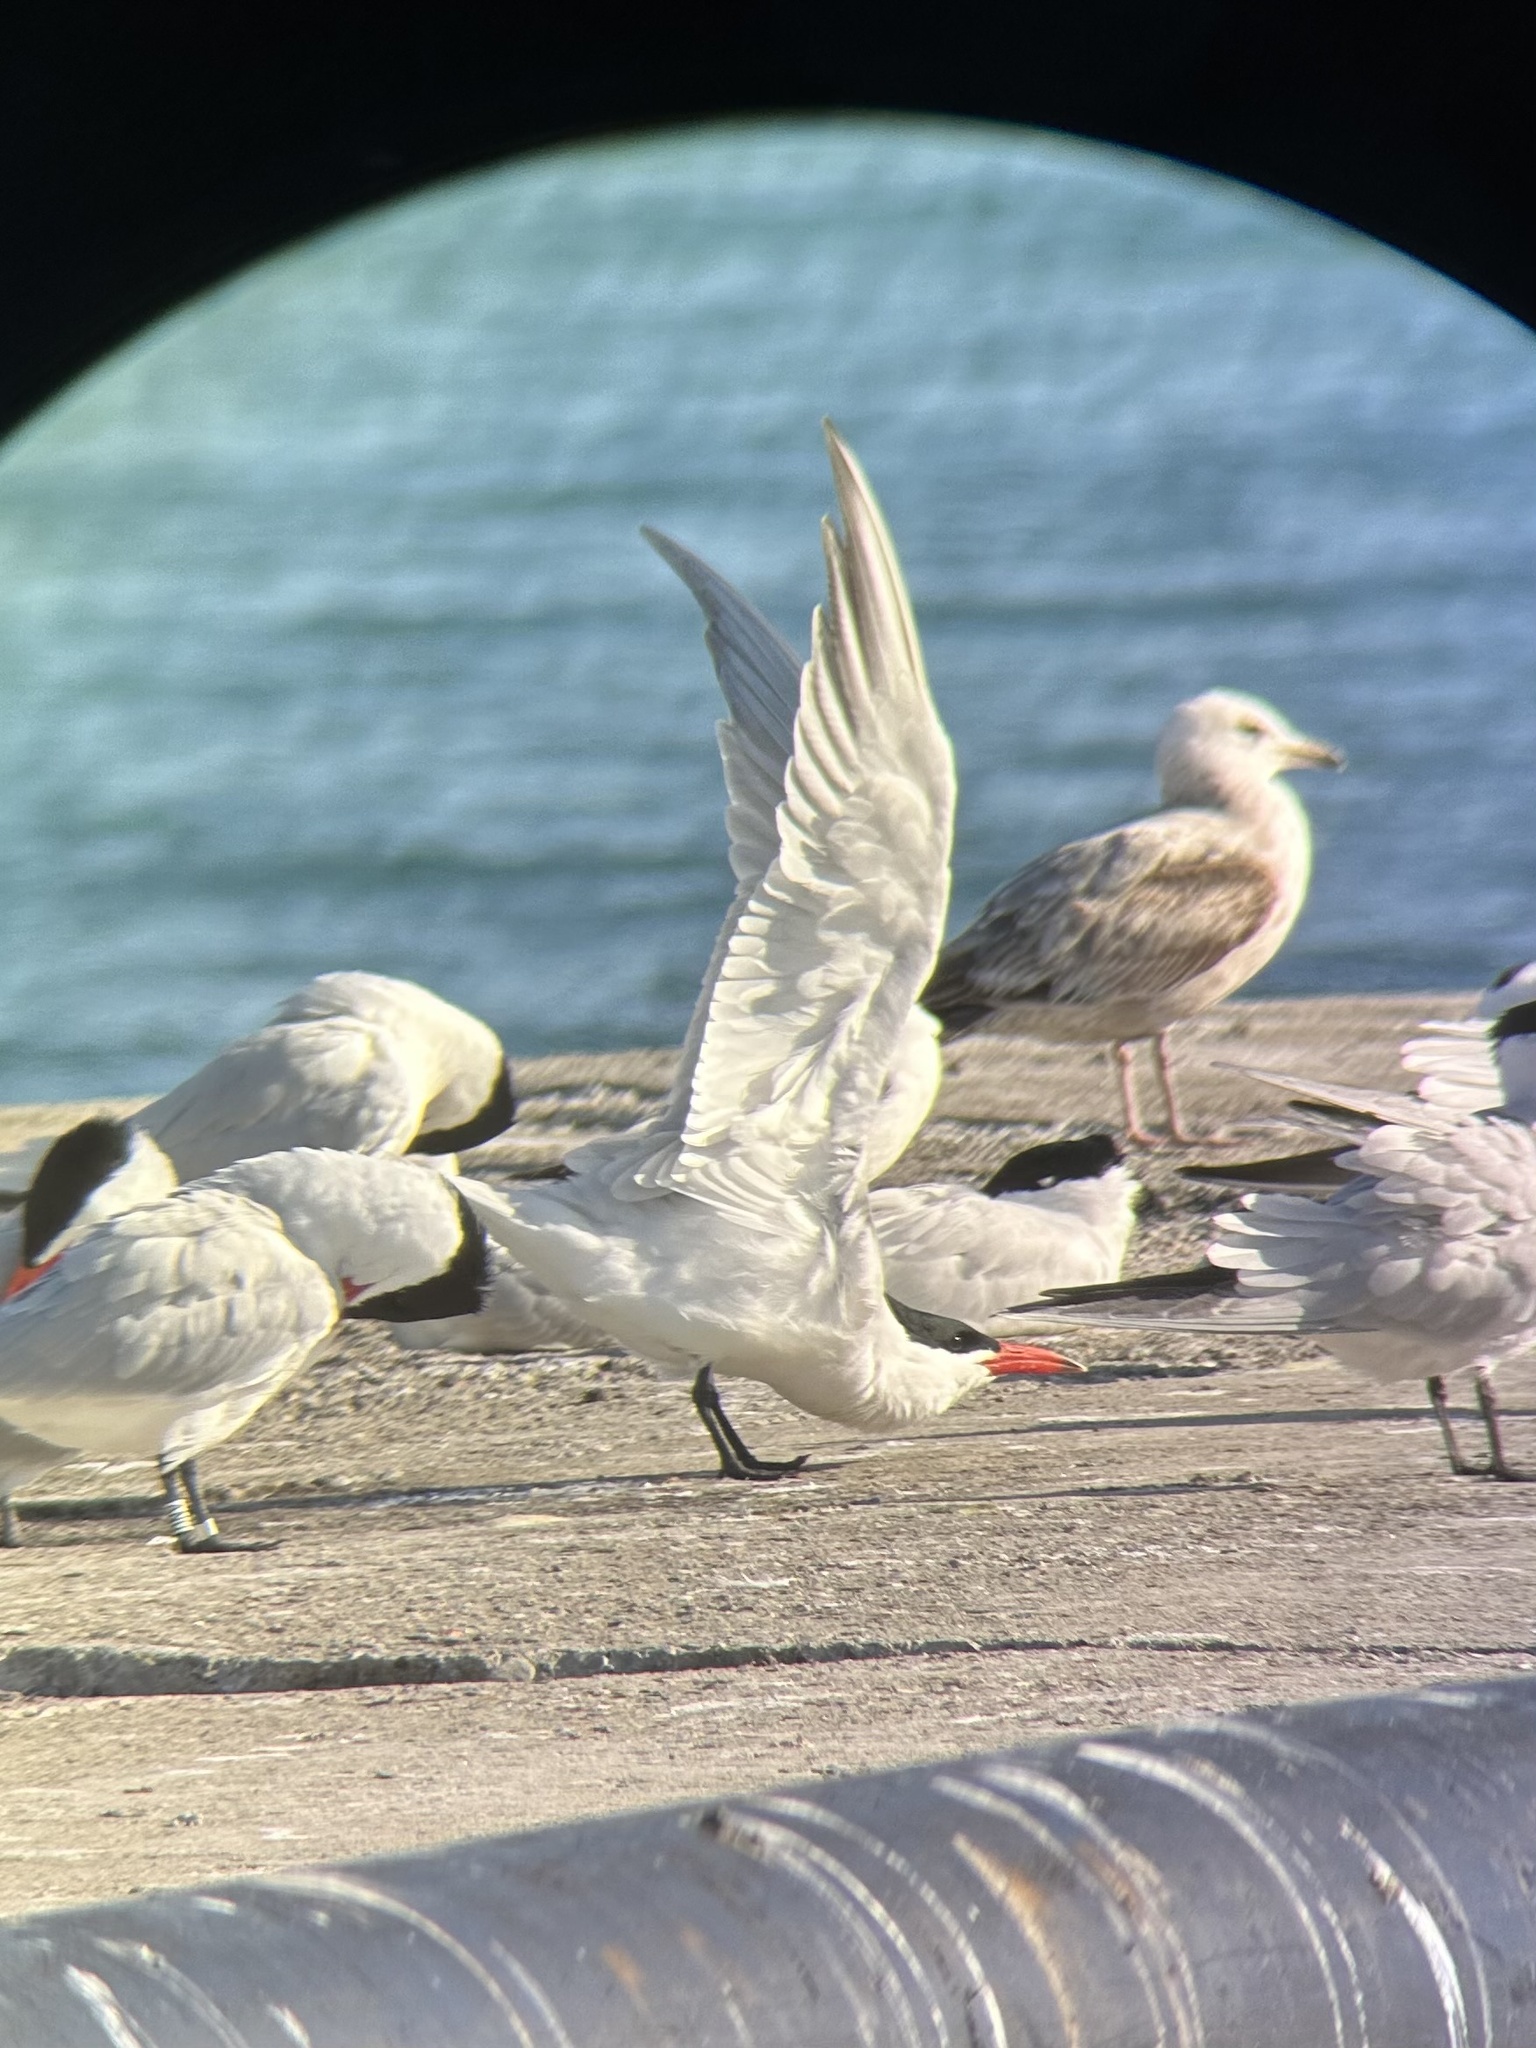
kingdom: Animalia
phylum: Chordata
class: Aves
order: Charadriiformes
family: Laridae
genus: Hydroprogne
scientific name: Hydroprogne caspia
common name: Caspian tern
